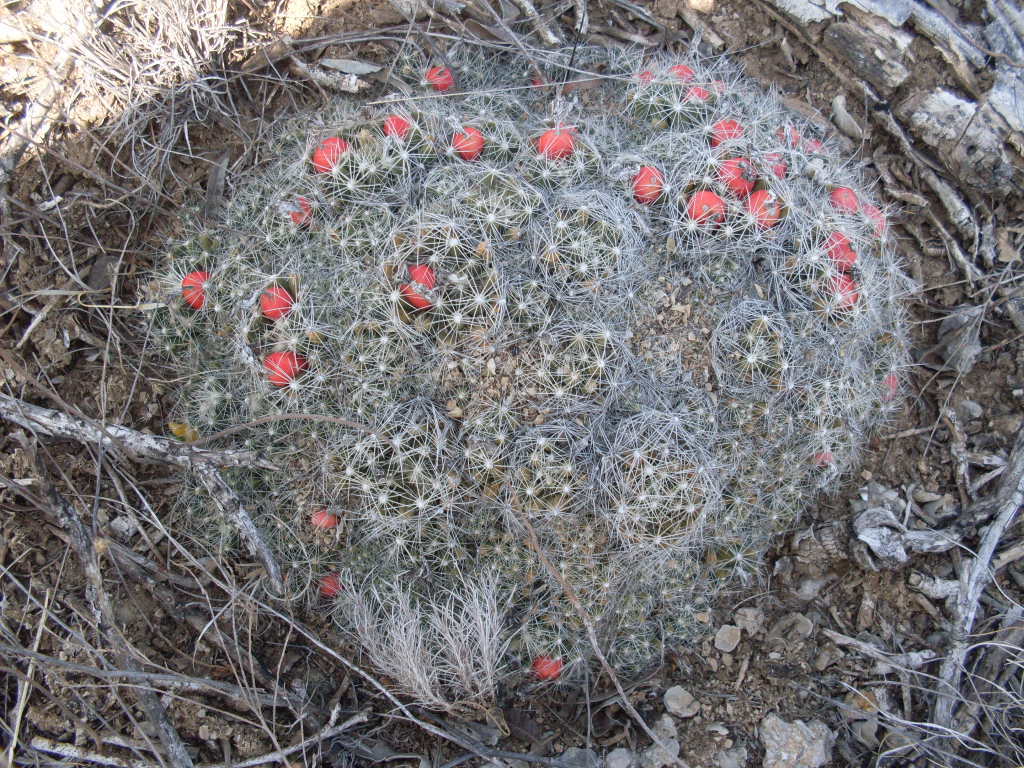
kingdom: Plantae
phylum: Tracheophyta
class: Magnoliopsida
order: Caryophyllales
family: Cactaceae
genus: Pelecyphora
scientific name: Pelecyphora missouriensis
